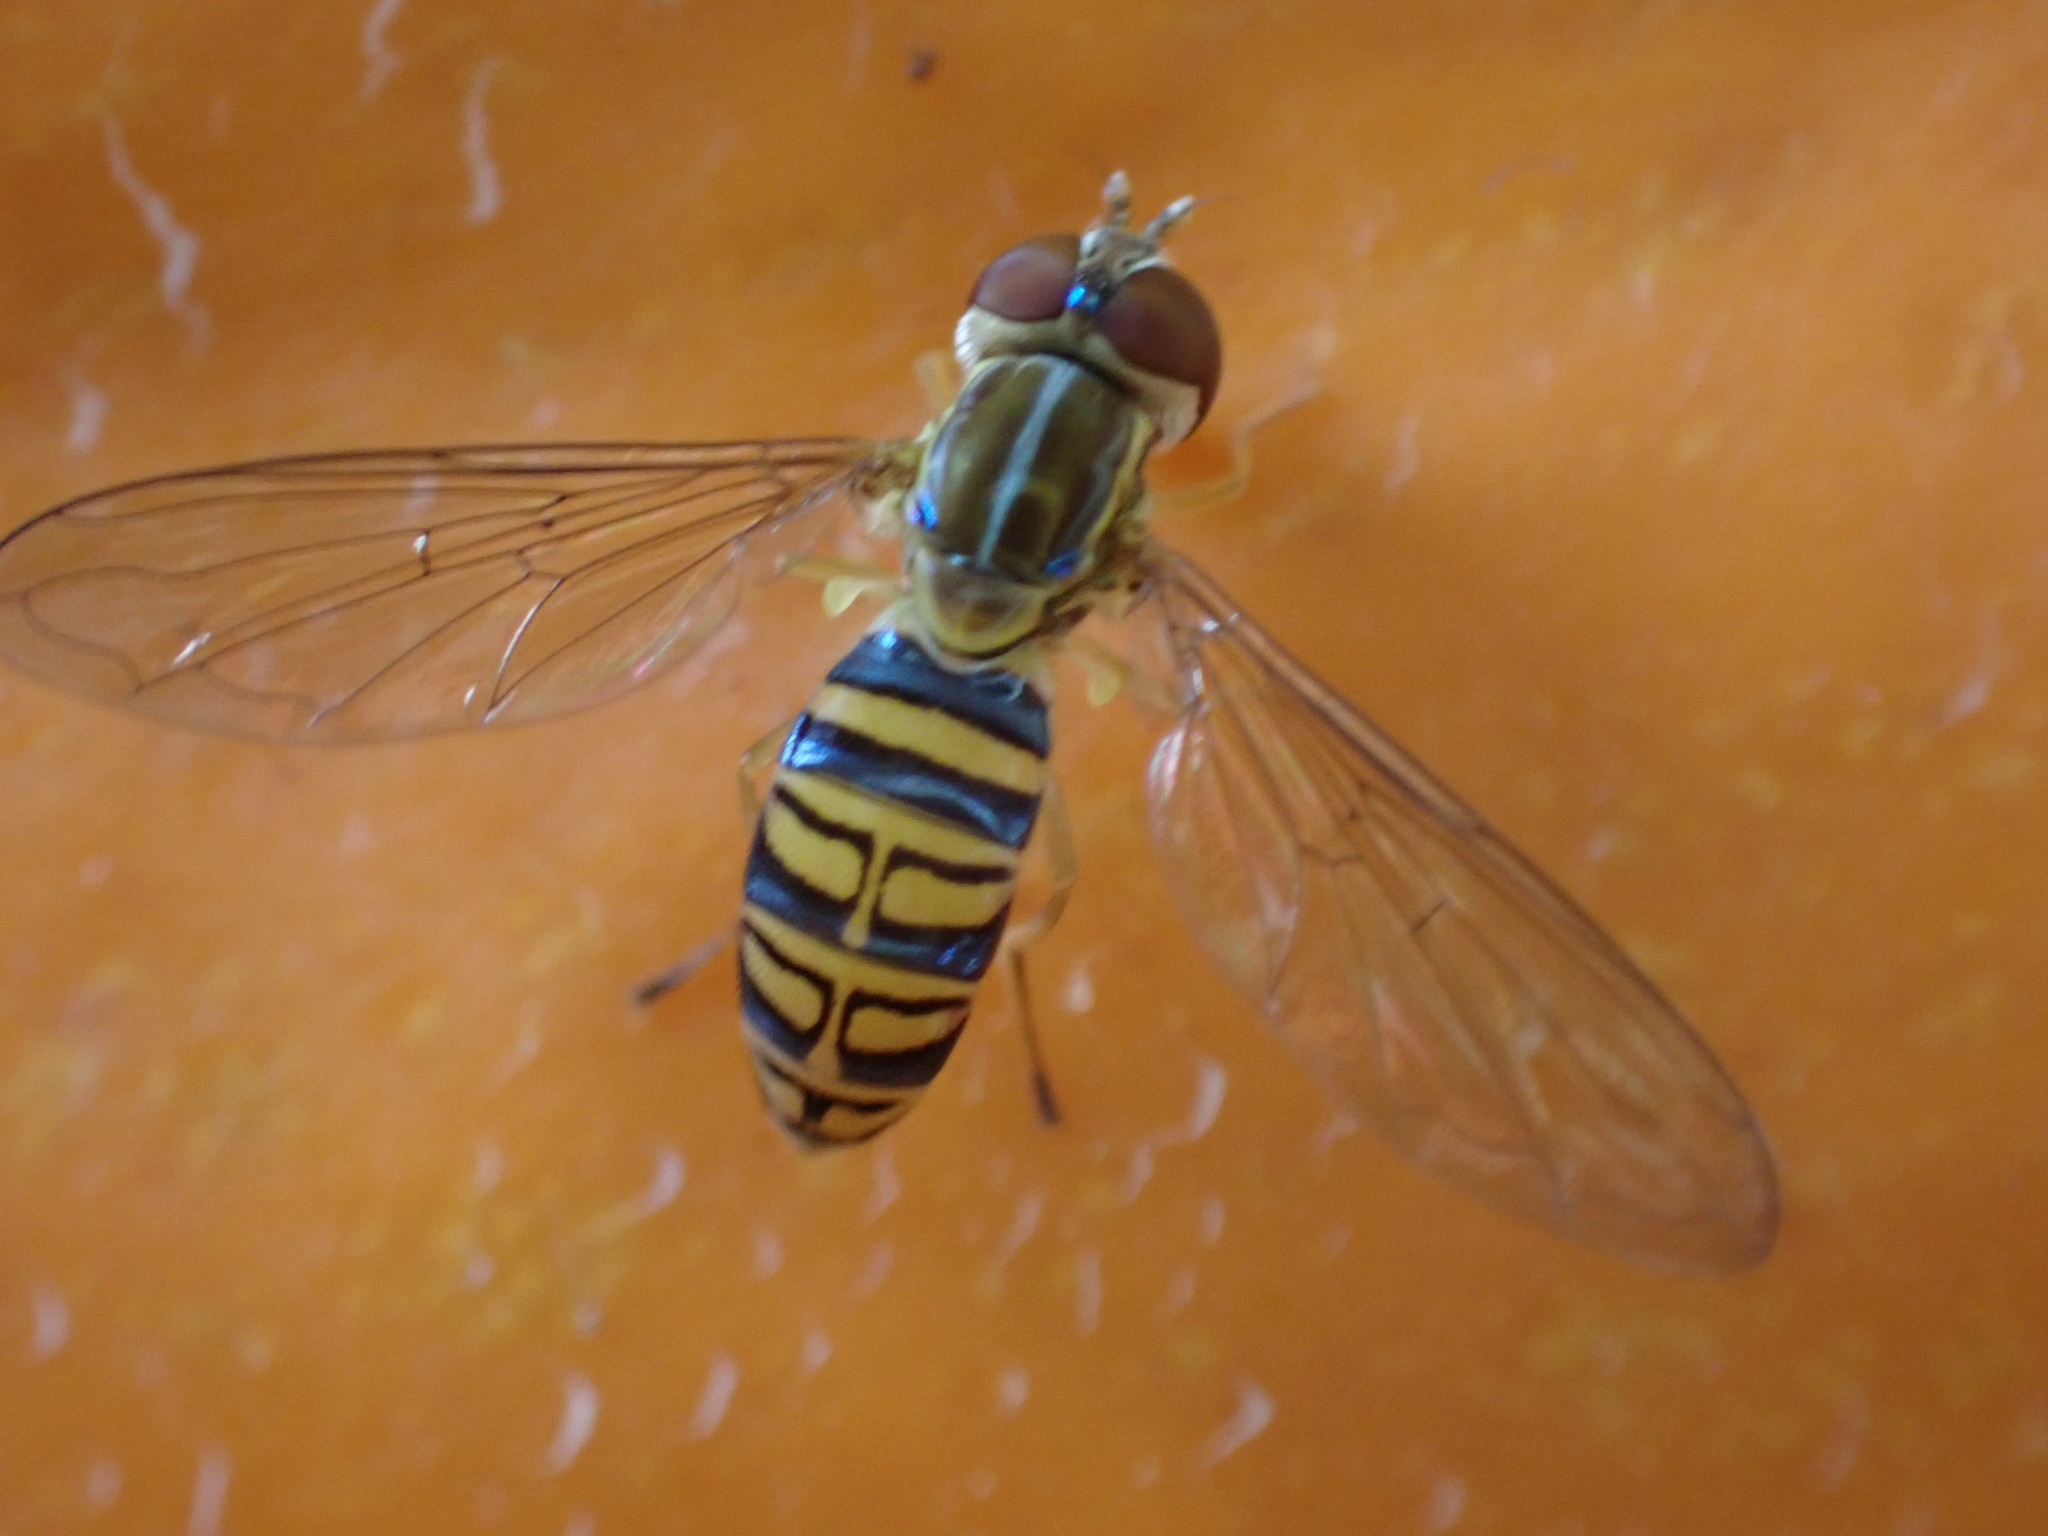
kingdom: Animalia
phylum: Arthropoda
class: Insecta
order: Diptera
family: Syrphidae
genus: Toxomerus
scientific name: Toxomerus politus
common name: Maize calligrapher
